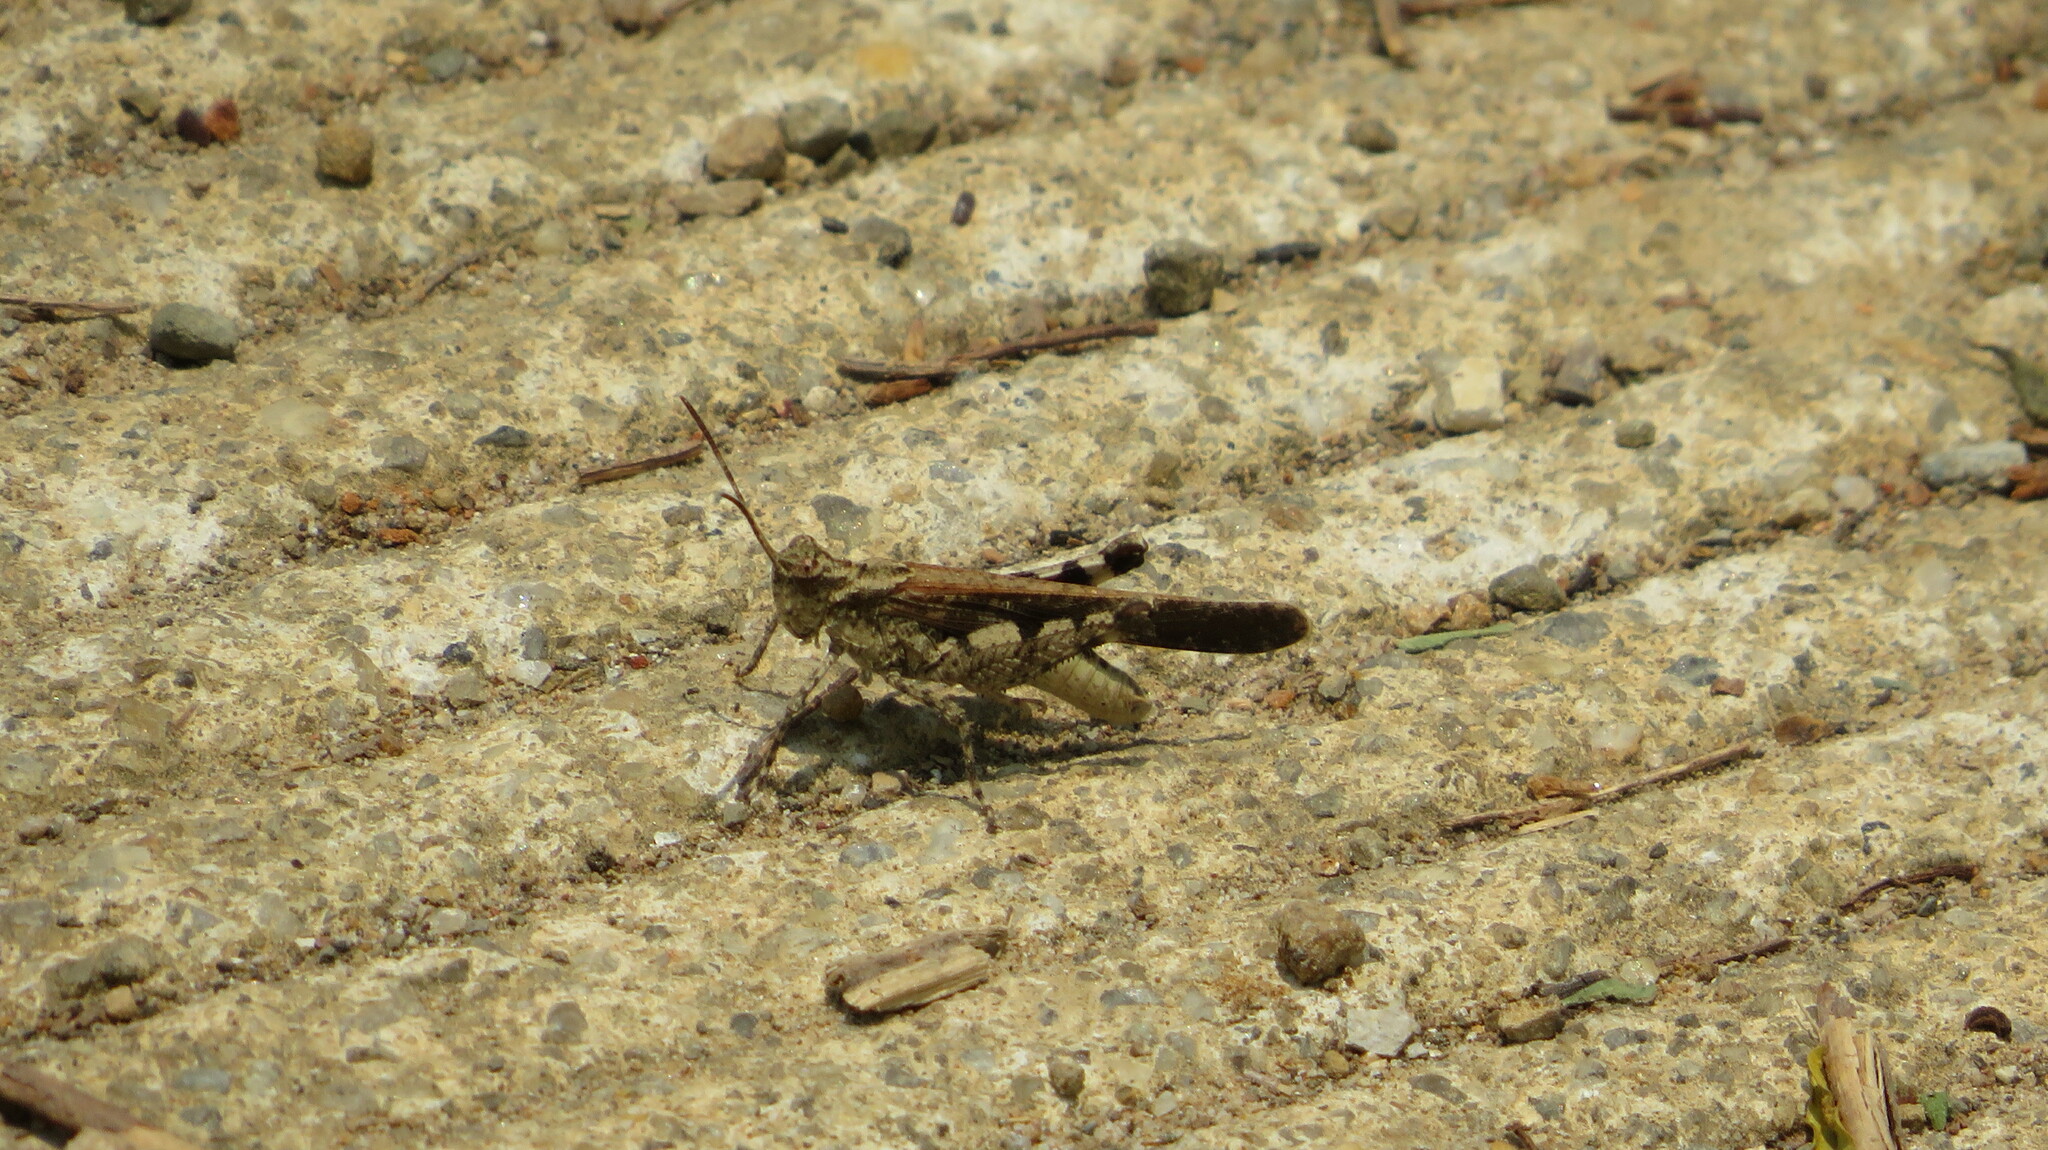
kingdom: Animalia
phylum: Arthropoda
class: Insecta
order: Orthoptera
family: Acrididae
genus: Trilophidia
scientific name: Trilophidia annulata
